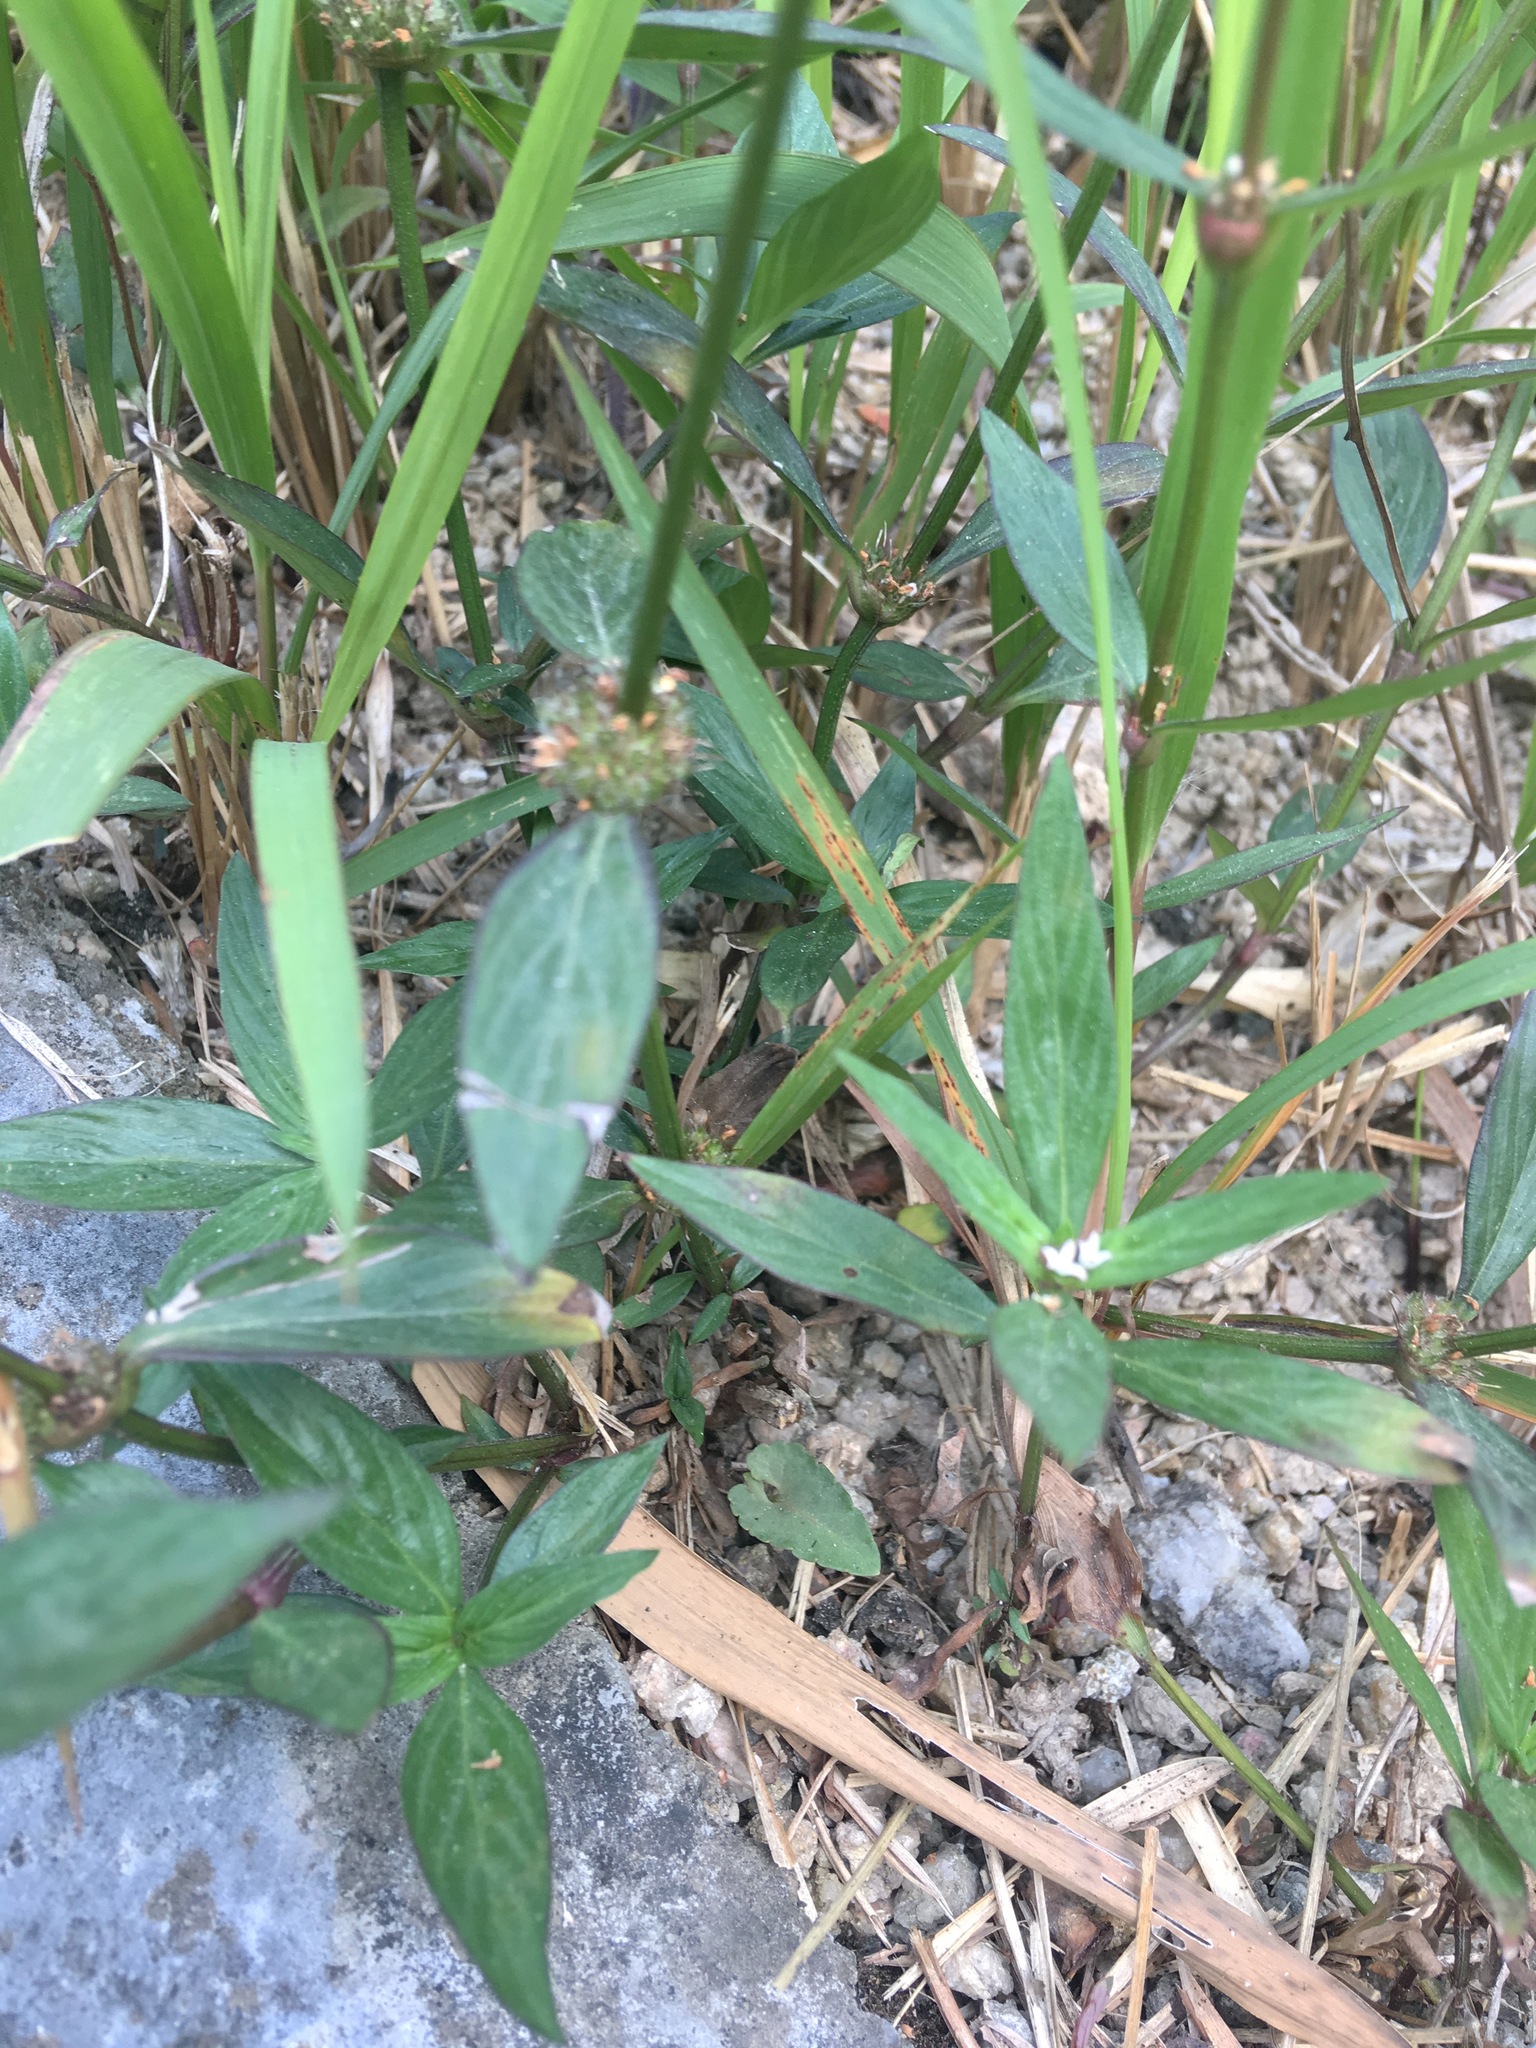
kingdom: Plantae
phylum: Tracheophyta
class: Magnoliopsida
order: Gentianales
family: Rubiaceae
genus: Spermacoce
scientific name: Spermacoce remota
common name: Woodland false buttonweed
